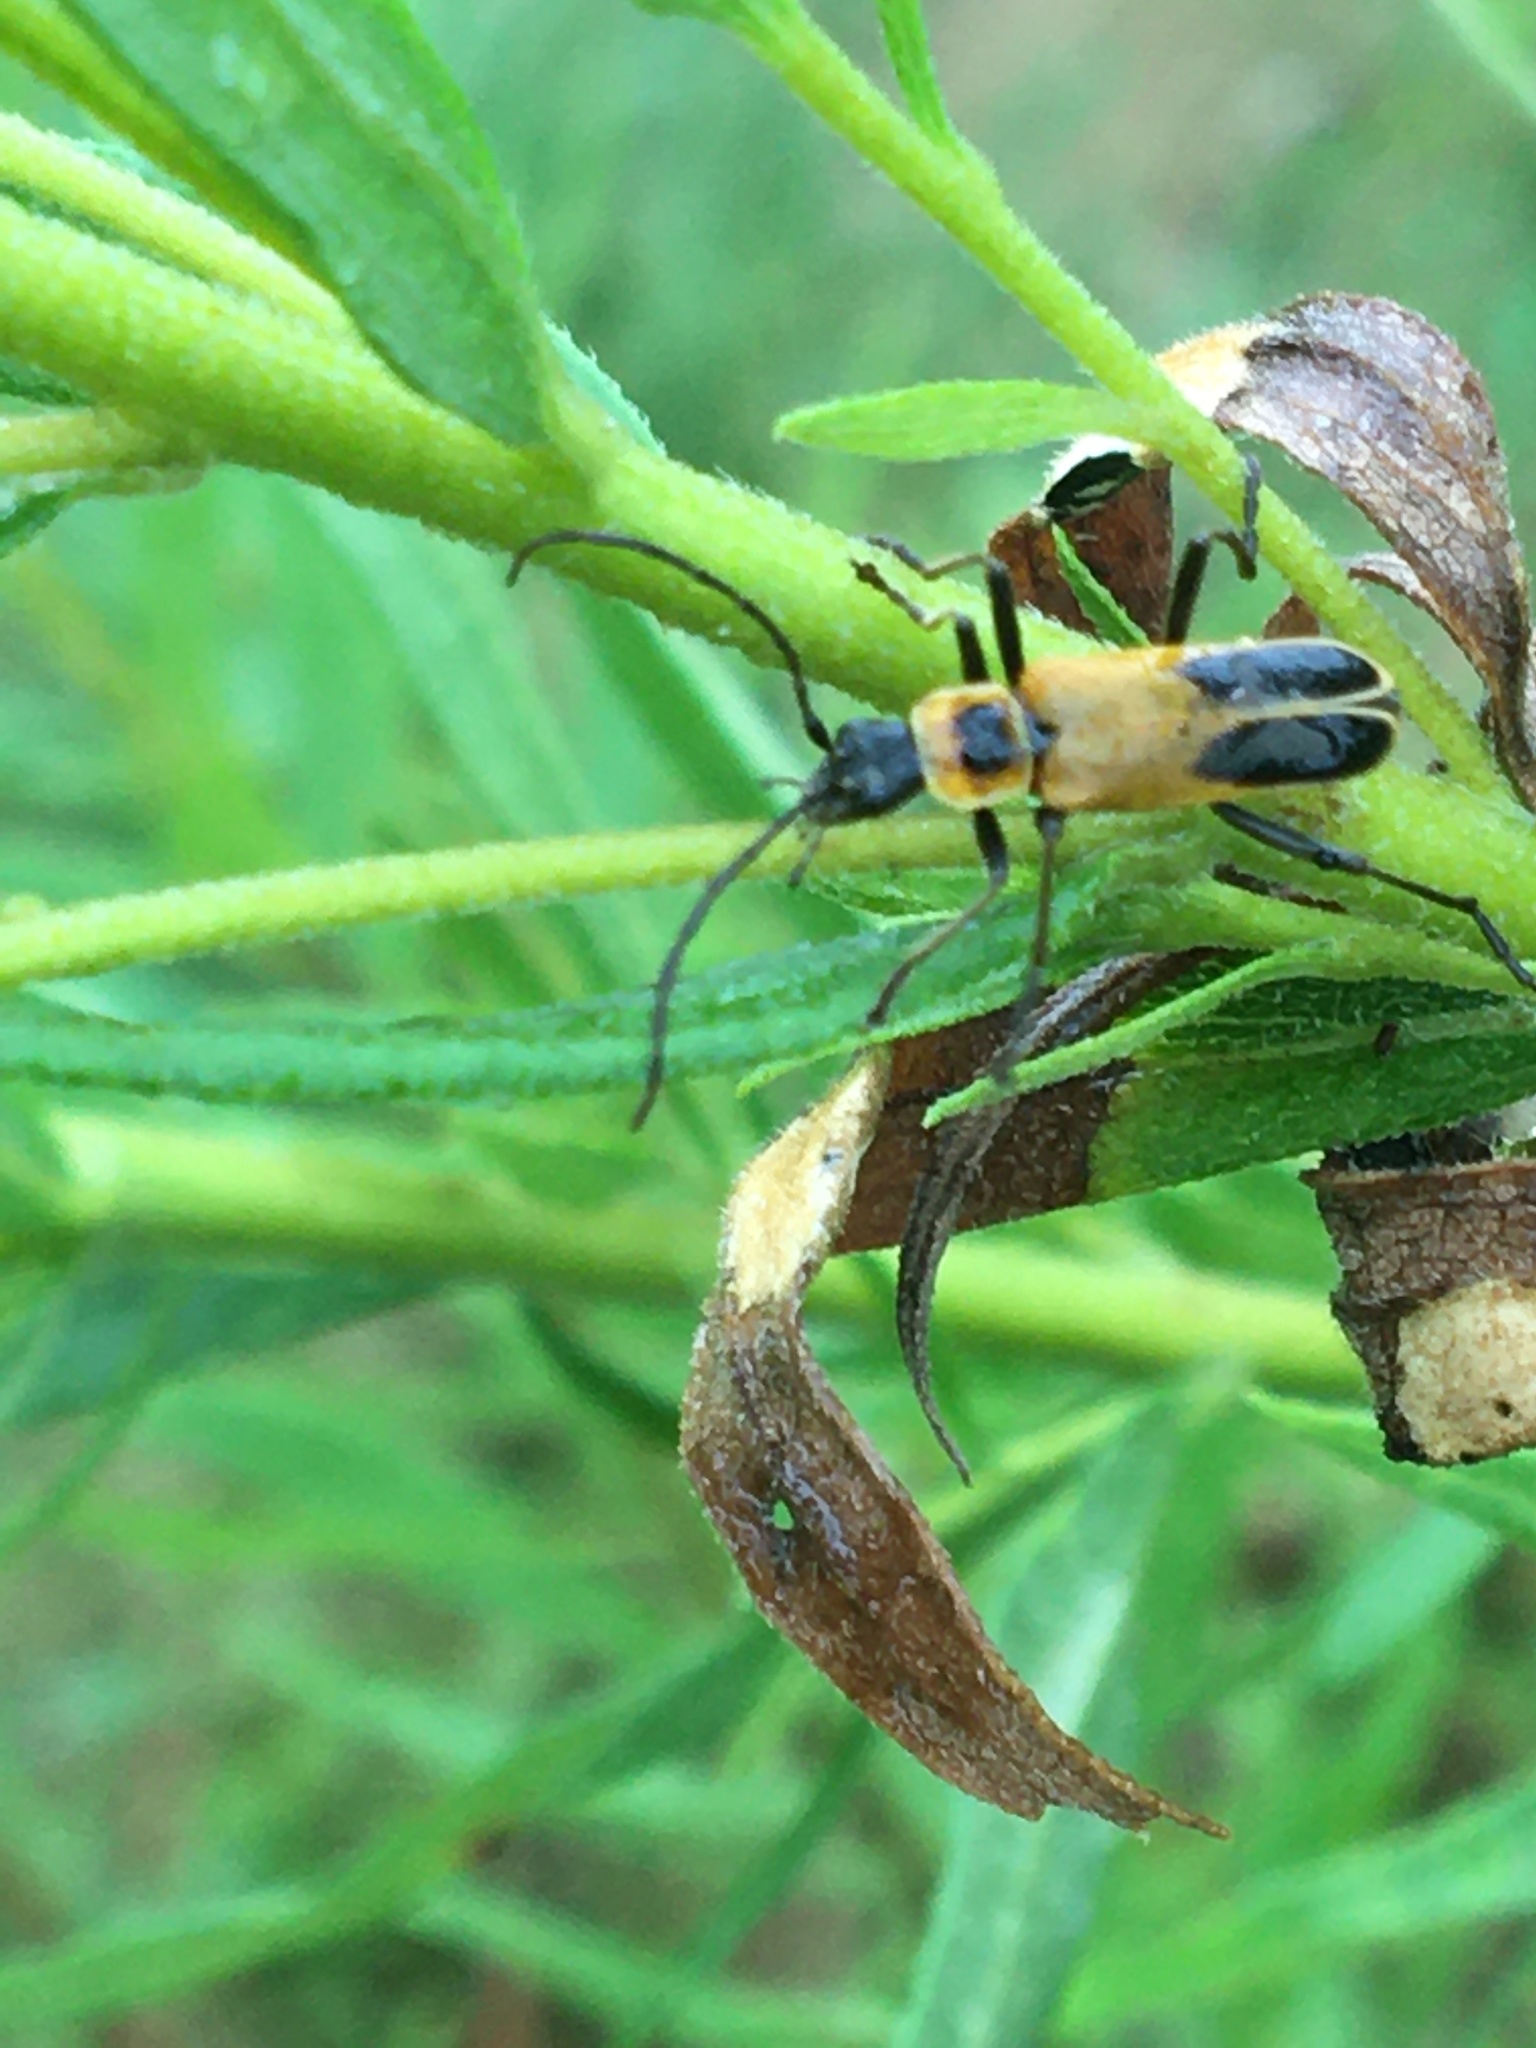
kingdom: Animalia
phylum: Arthropoda
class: Insecta
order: Coleoptera
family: Cantharidae
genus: Chauliognathus
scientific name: Chauliognathus pensylvanicus
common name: Goldenrod soldier beetle
